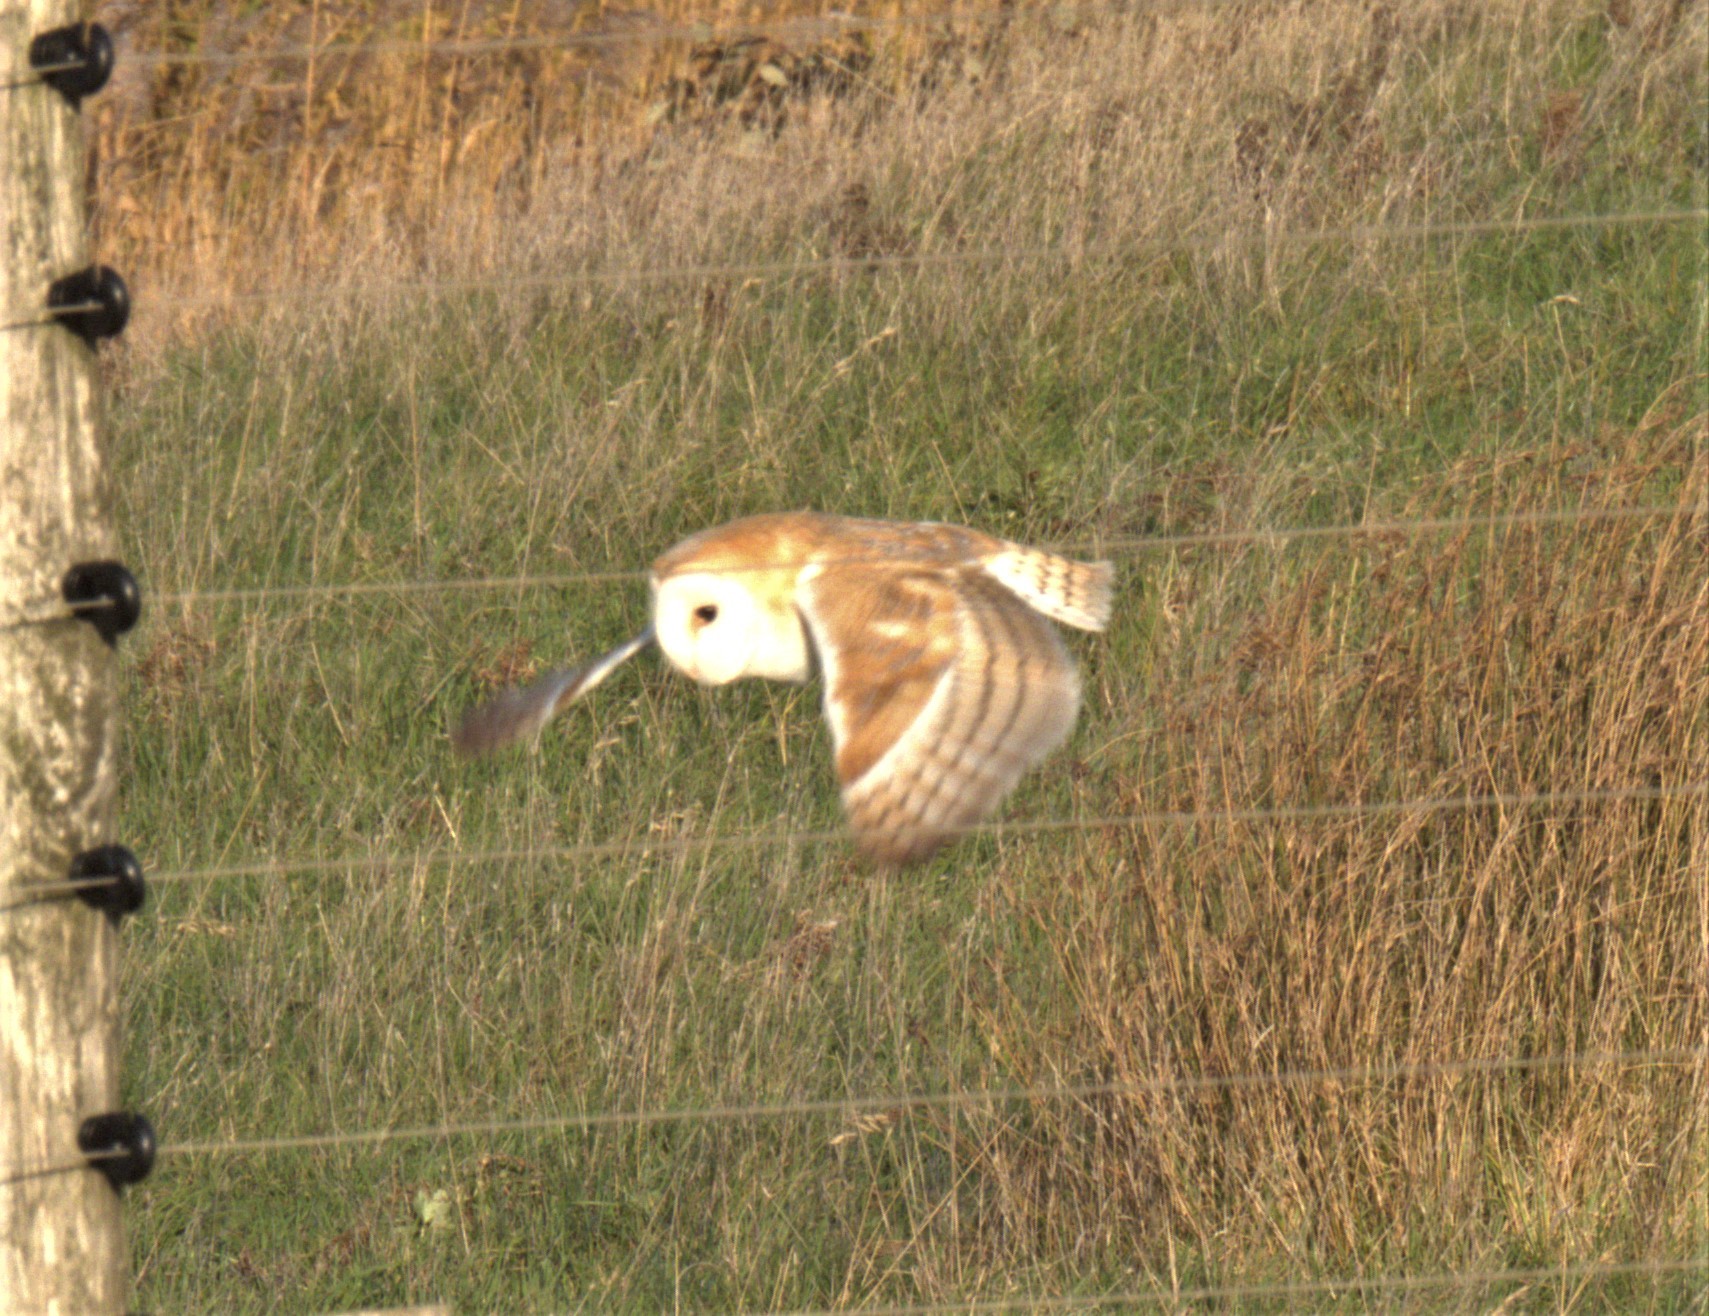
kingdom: Animalia
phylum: Chordata
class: Aves
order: Strigiformes
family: Tytonidae
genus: Tyto
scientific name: Tyto alba
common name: Barn owl
